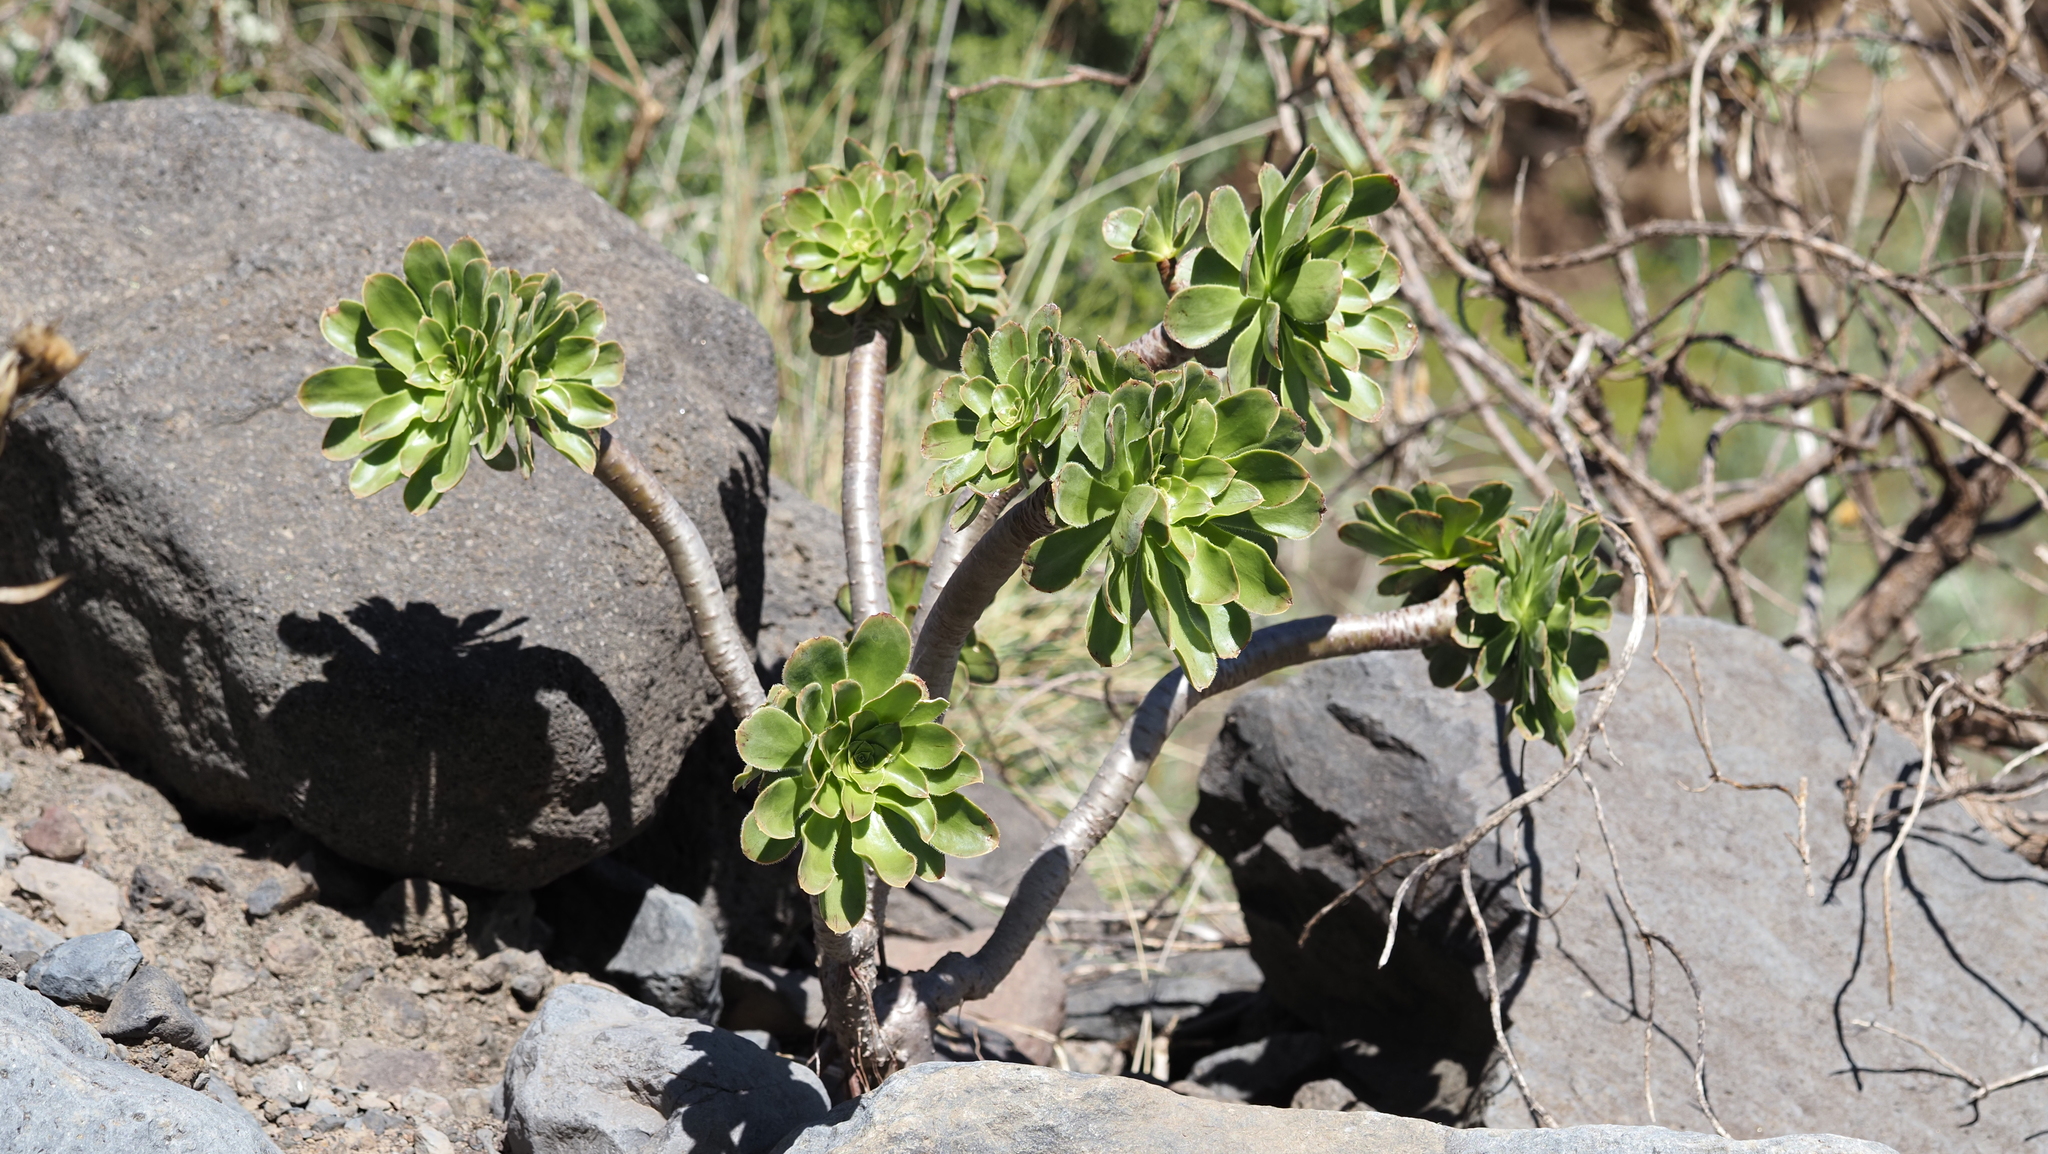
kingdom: Plantae
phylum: Tracheophyta
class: Magnoliopsida
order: Saxifragales
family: Crassulaceae
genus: Aeonium
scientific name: Aeonium arboreum
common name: Tree aeonium
